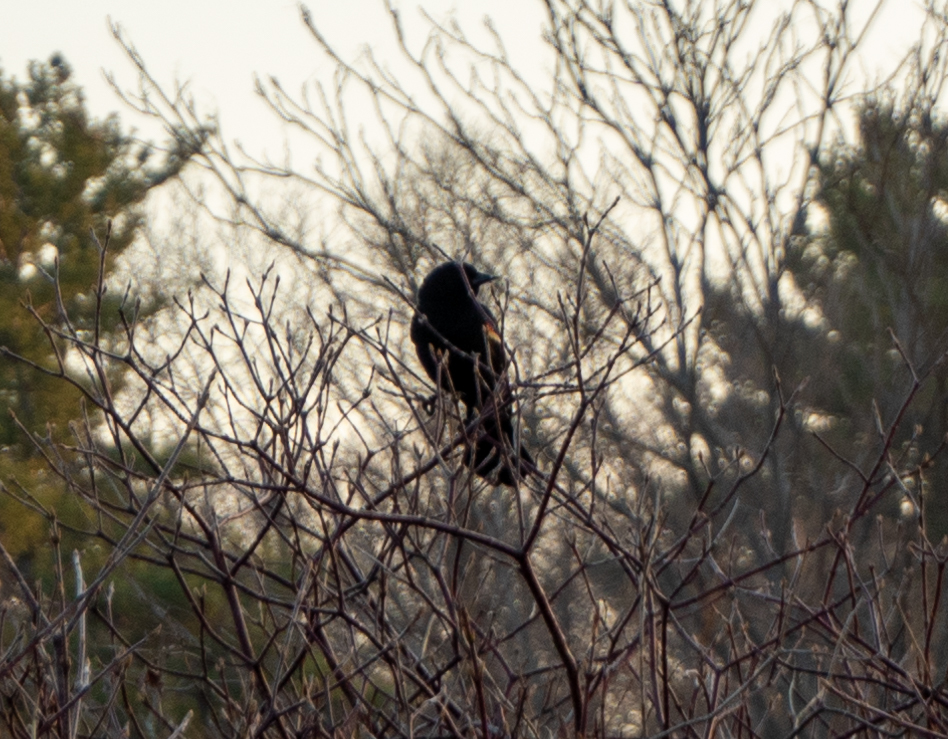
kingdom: Animalia
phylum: Chordata
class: Aves
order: Passeriformes
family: Icteridae
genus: Agelaius
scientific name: Agelaius phoeniceus
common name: Red-winged blackbird
